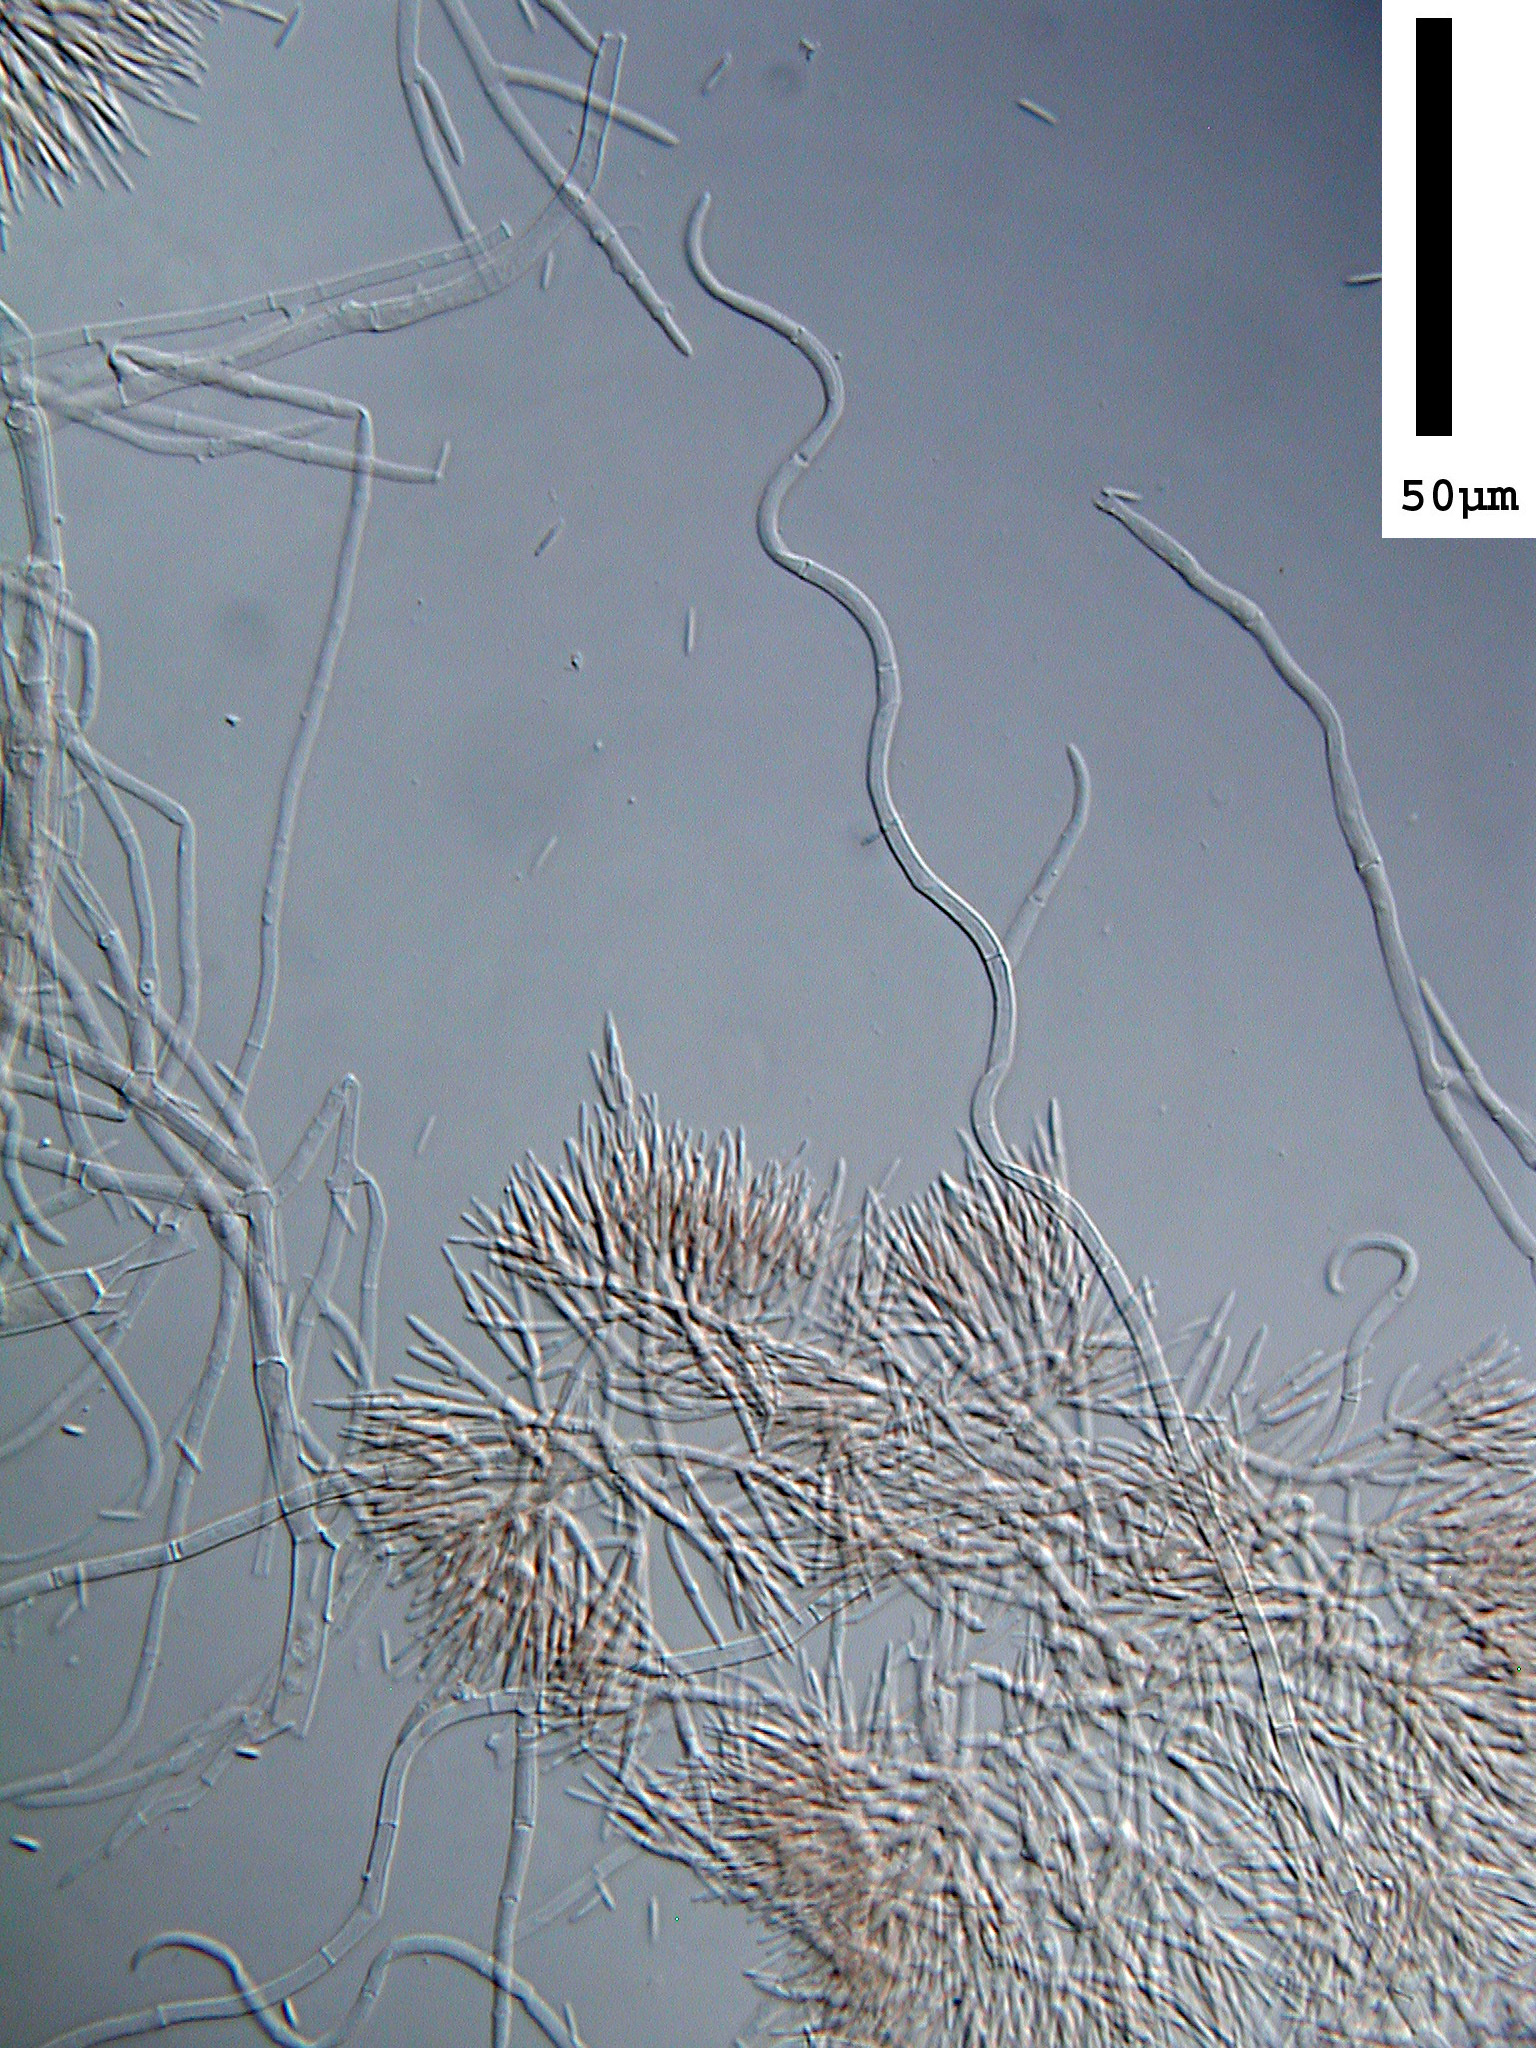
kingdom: Fungi
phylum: Ascomycota
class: Sordariomycetes
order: Hypocreales
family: Nectriaceae
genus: Sarcopodium
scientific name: Sarcopodium tortuosum
